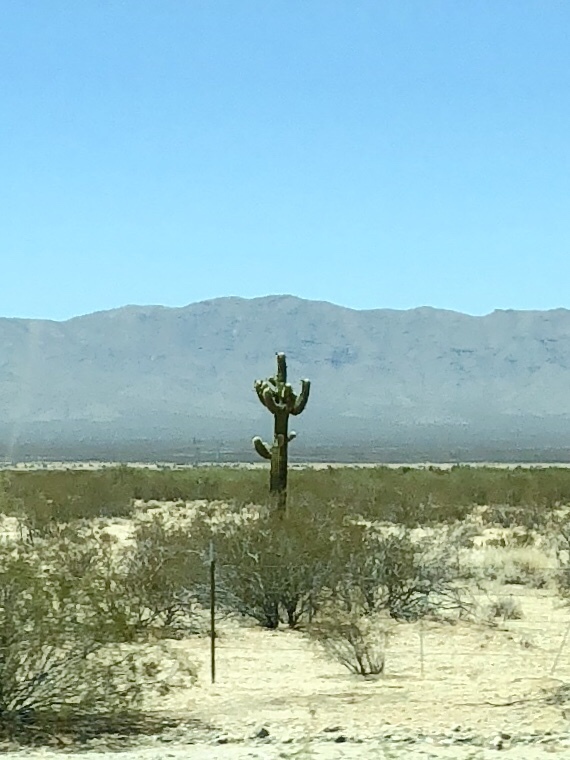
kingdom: Plantae
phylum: Tracheophyta
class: Magnoliopsida
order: Zygophyllales
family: Zygophyllaceae
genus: Larrea
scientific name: Larrea tridentata
